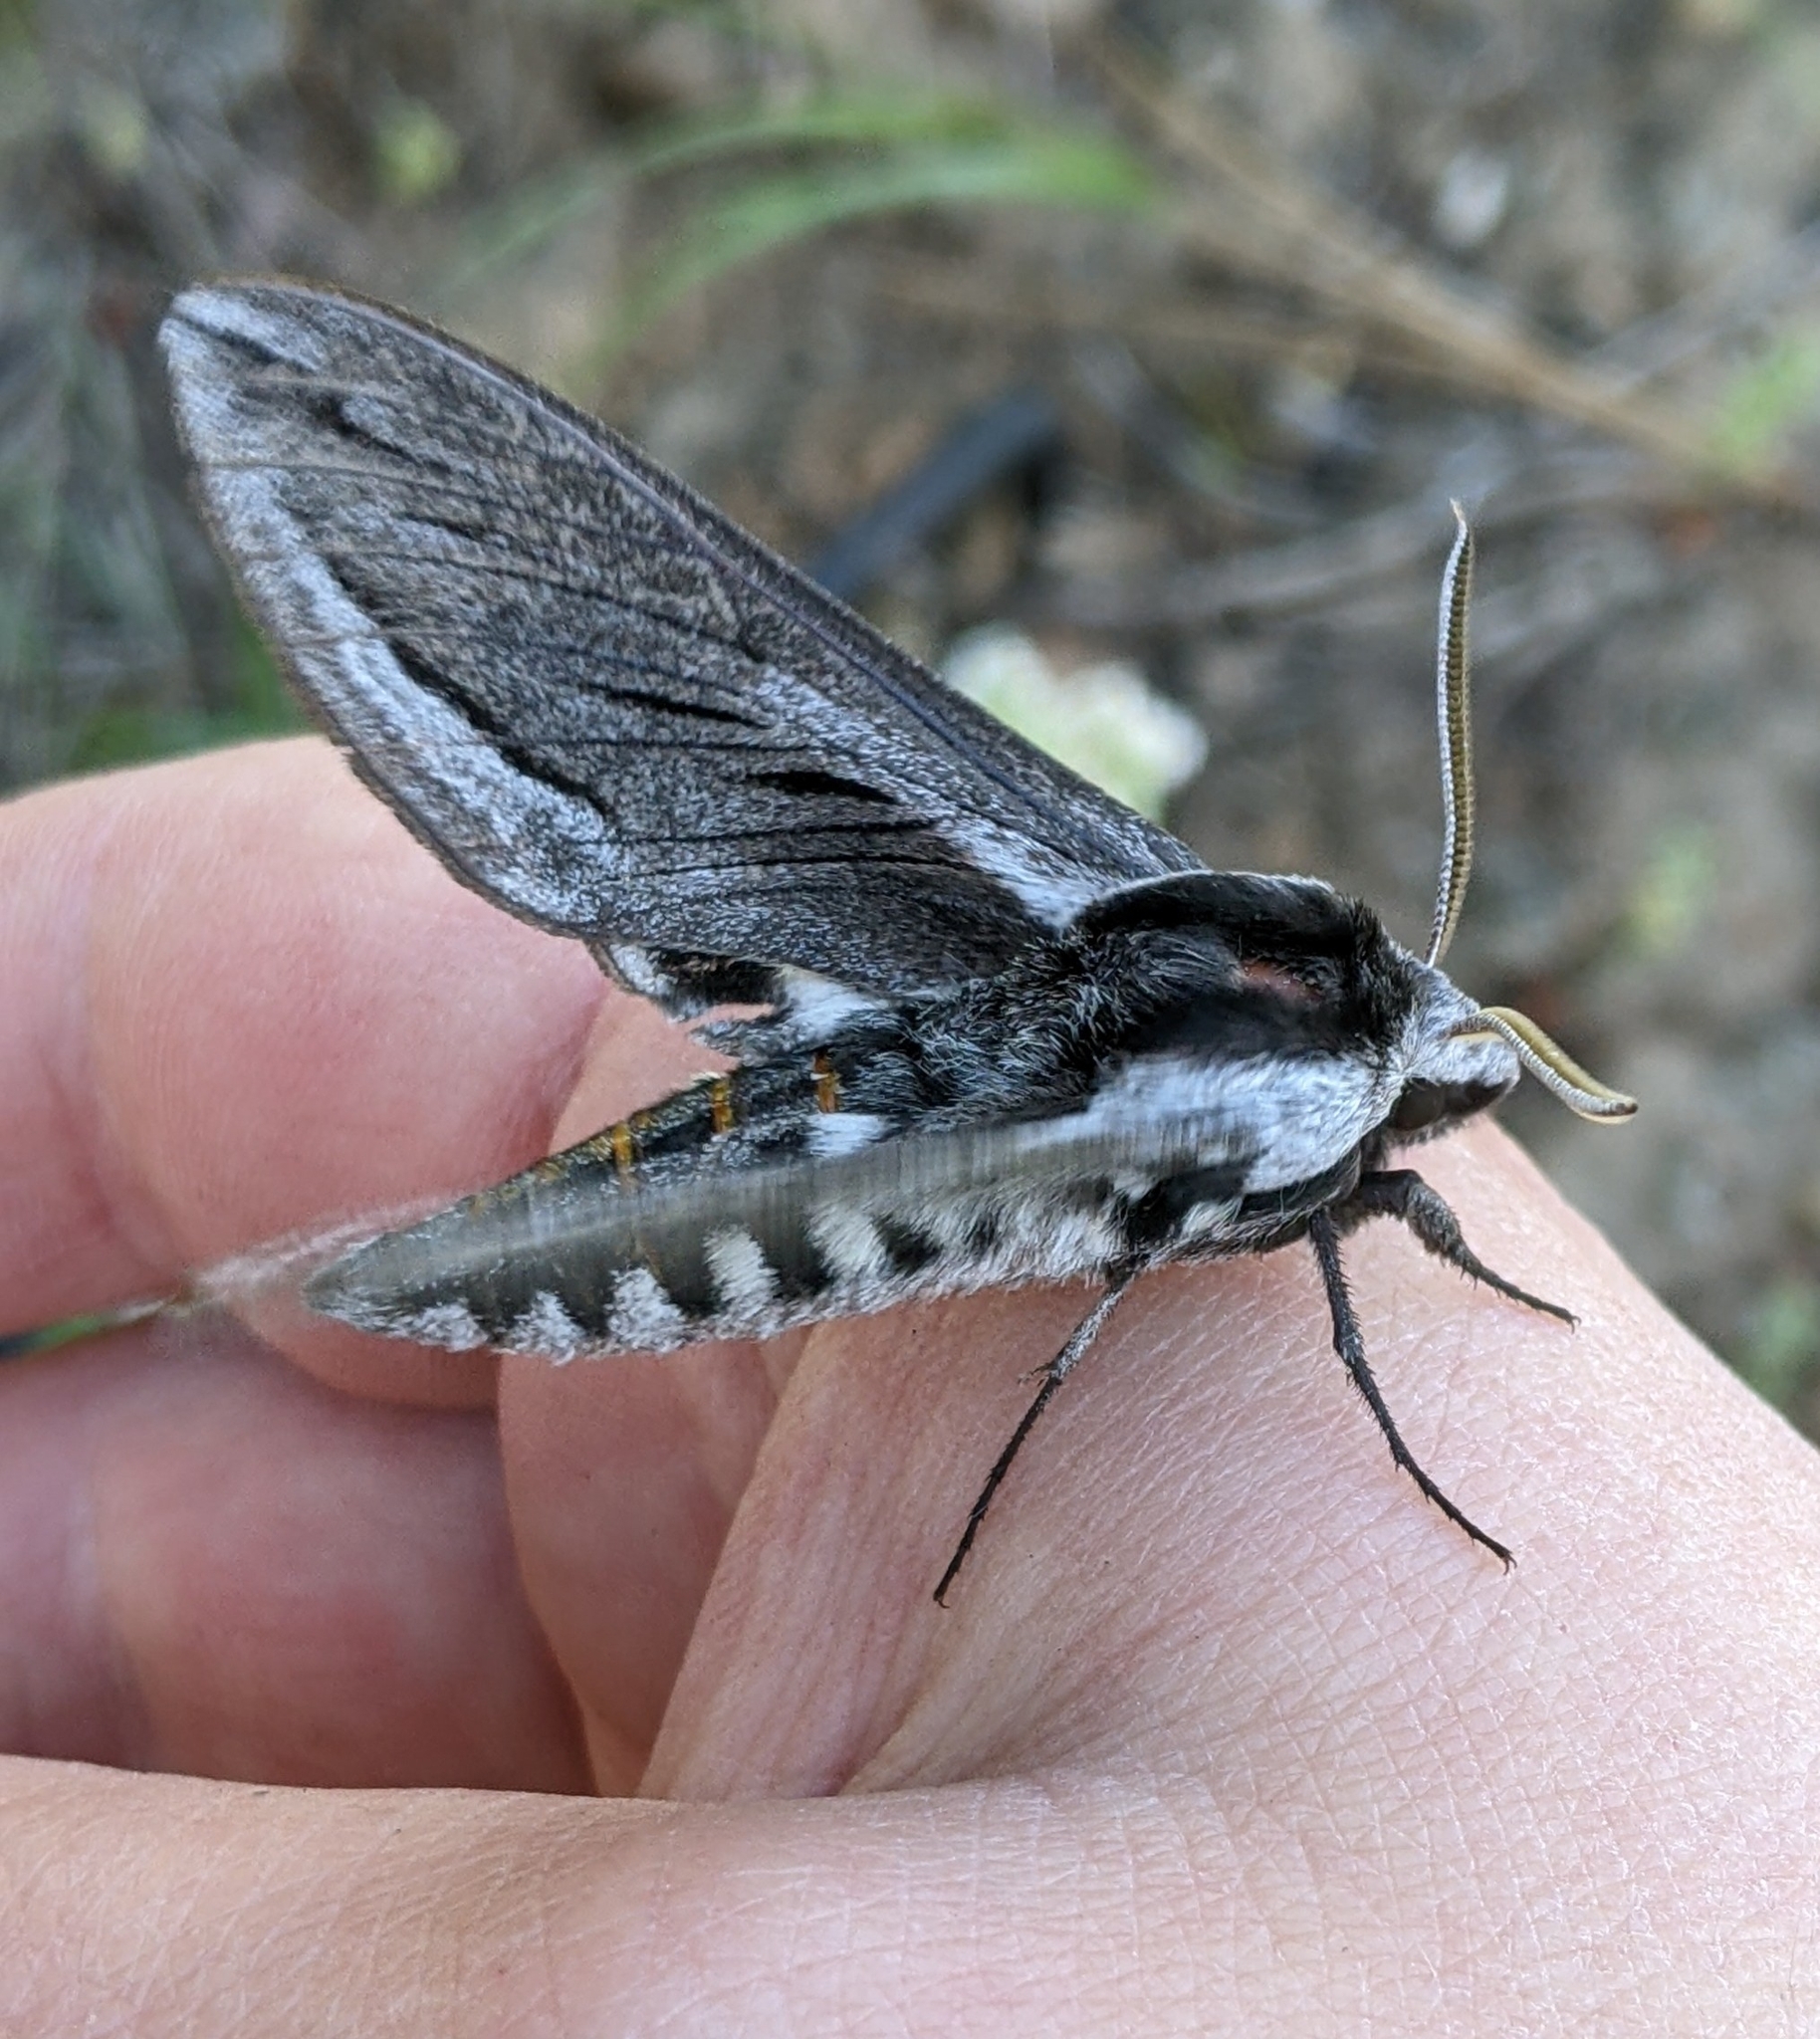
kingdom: Animalia
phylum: Arthropoda
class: Insecta
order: Lepidoptera
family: Sphingidae
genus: Sphinx
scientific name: Sphinx vashti
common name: Snowberry sphinx
